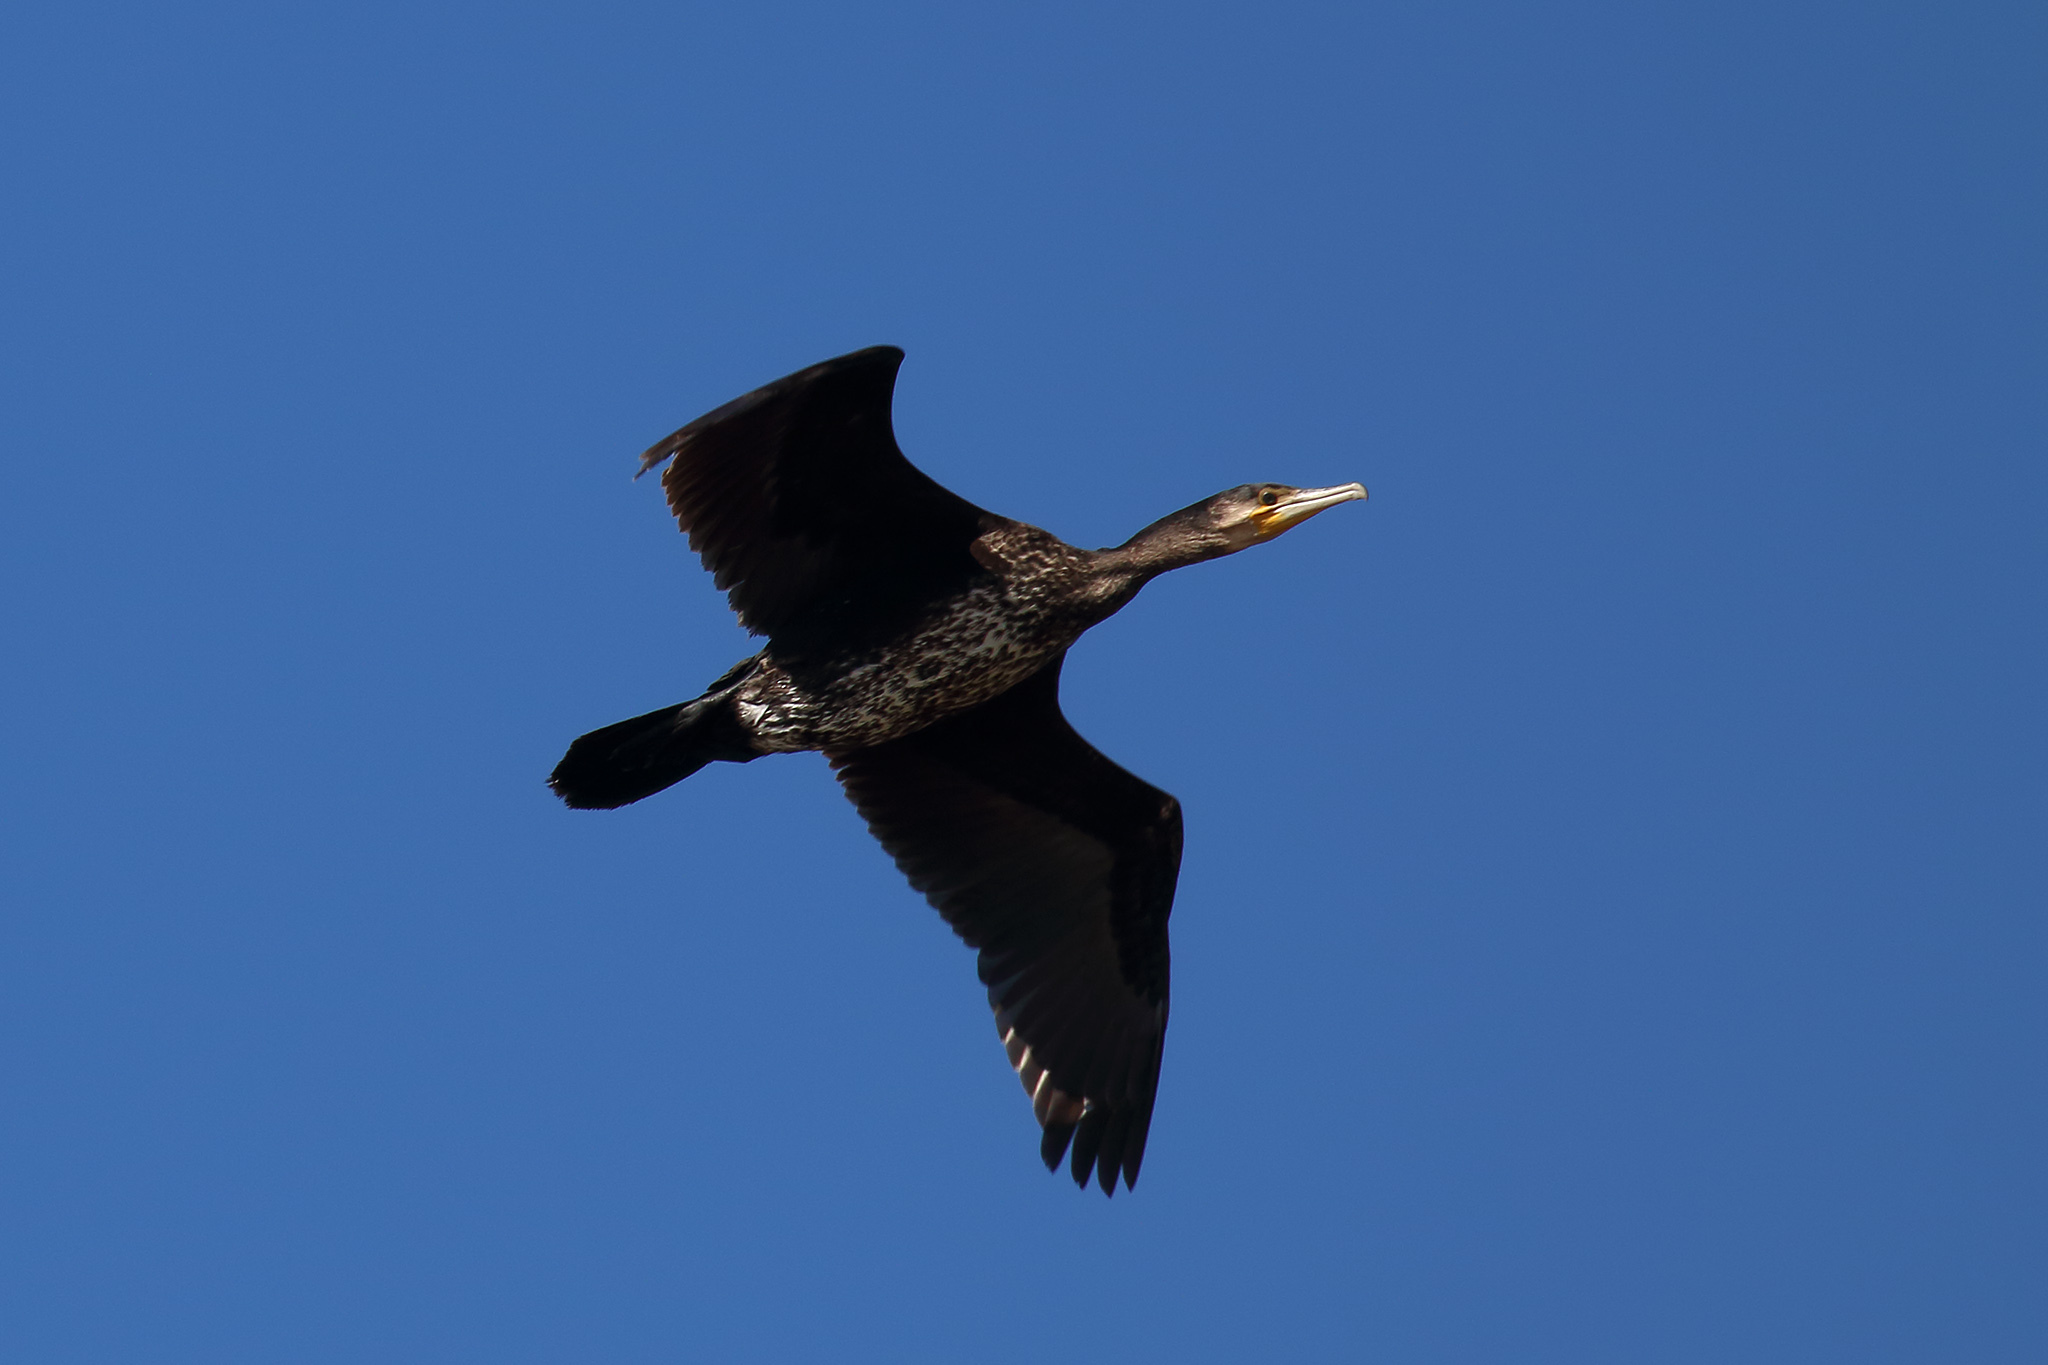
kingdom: Animalia
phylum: Chordata
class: Aves
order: Suliformes
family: Phalacrocoracidae
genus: Phalacrocorax
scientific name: Phalacrocorax carbo
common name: Great cormorant
